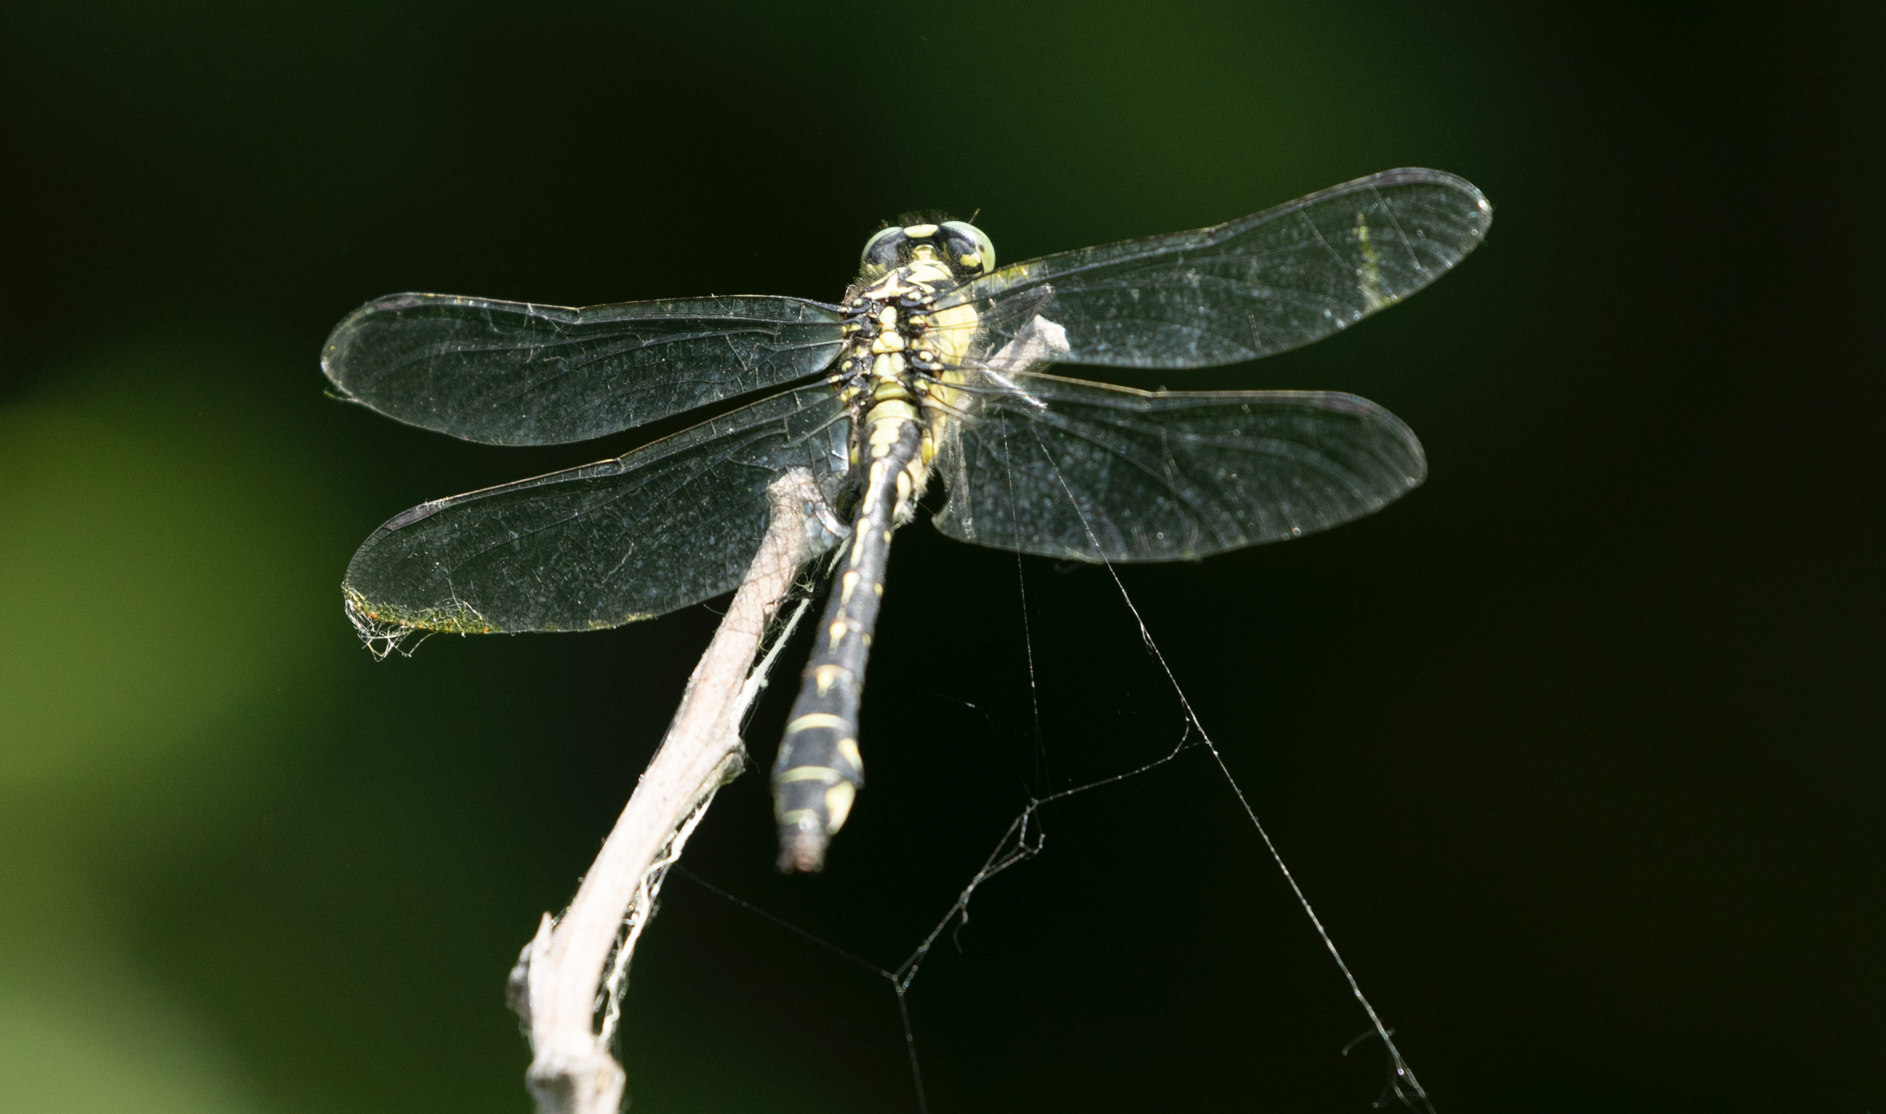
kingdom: Animalia
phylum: Arthropoda
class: Insecta
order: Odonata
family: Gomphidae
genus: Gomphus
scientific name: Gomphus vulgatissimus
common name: Club-tailed dragonfly
